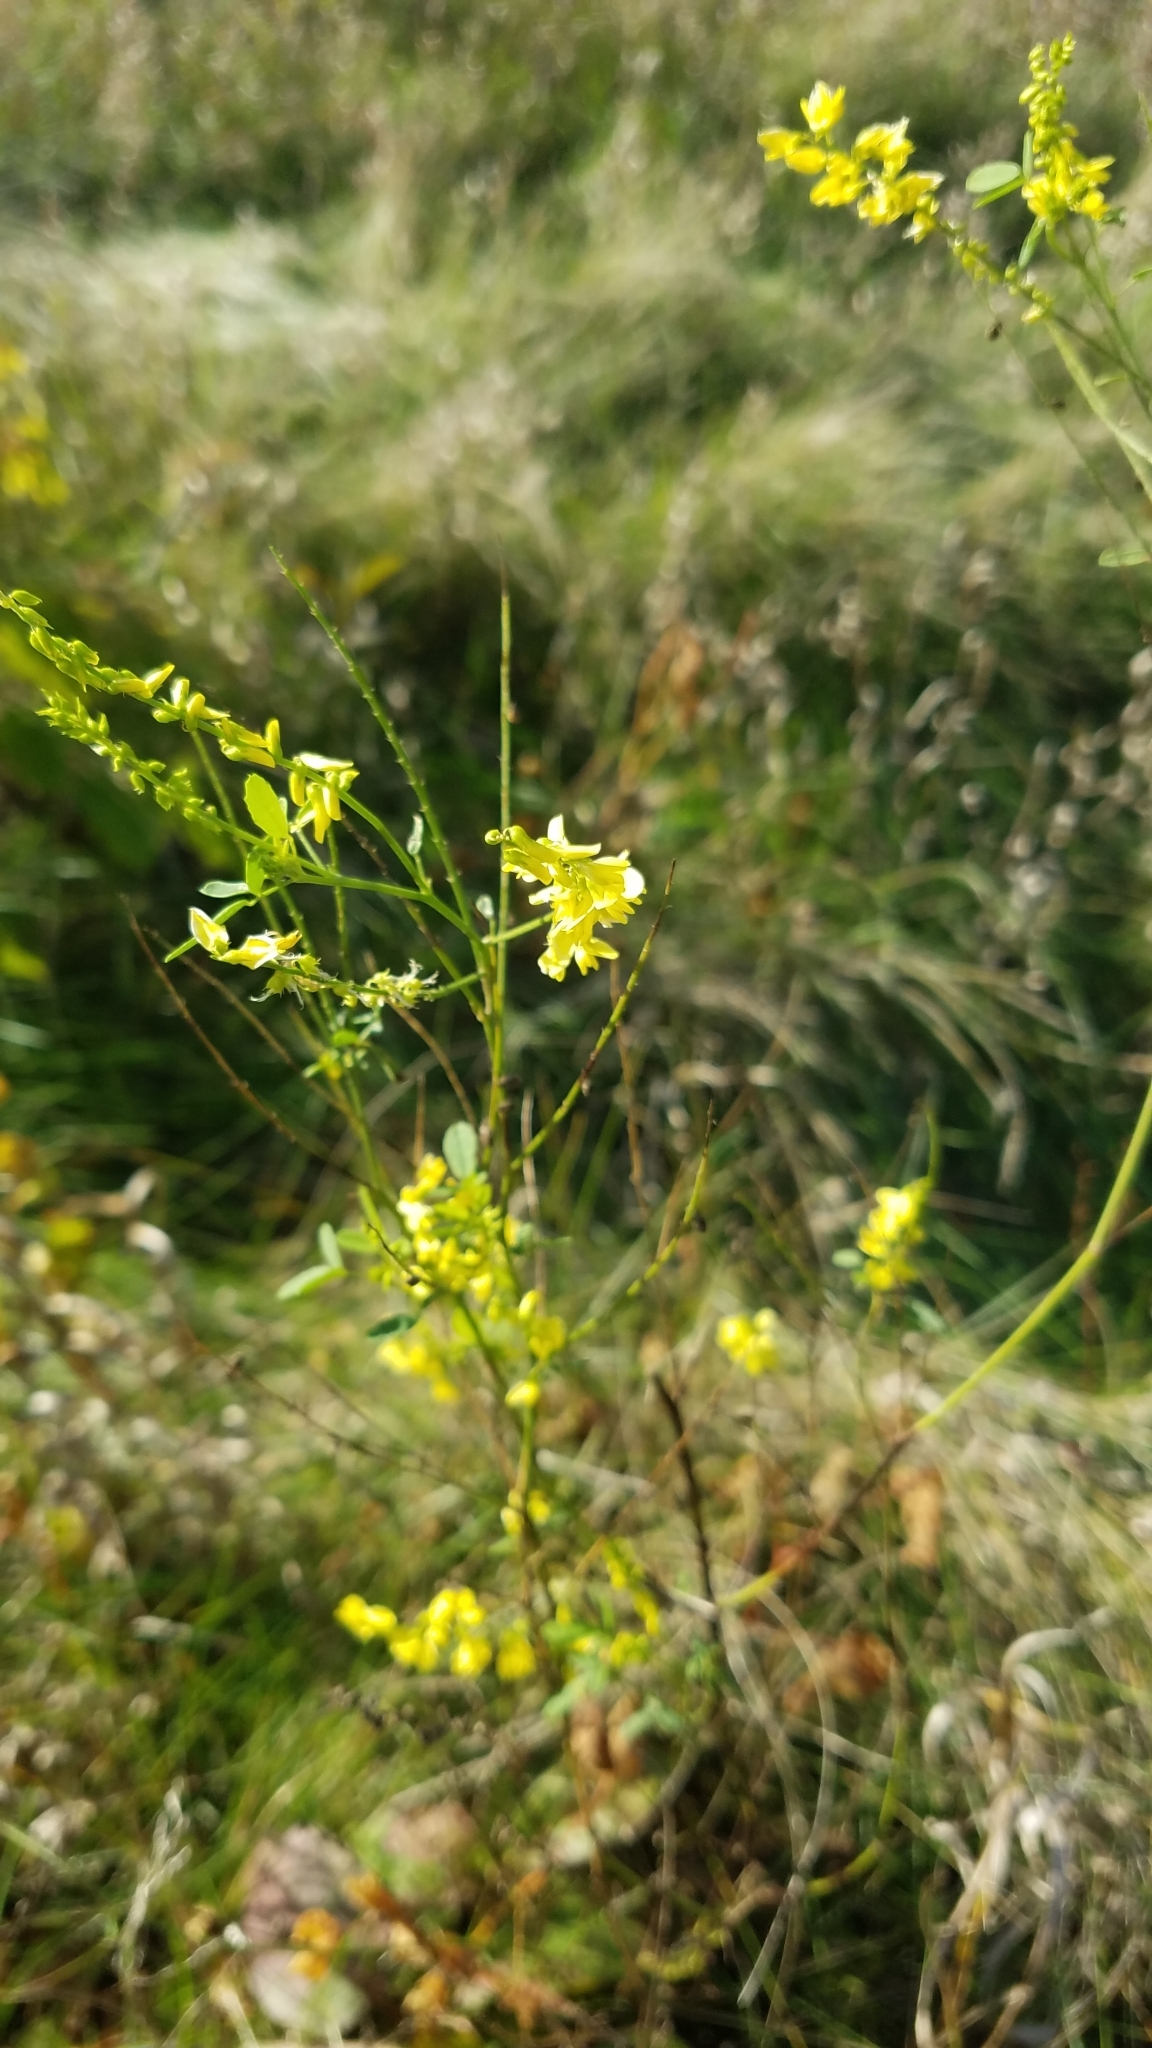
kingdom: Plantae
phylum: Tracheophyta
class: Magnoliopsida
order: Fabales
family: Fabaceae
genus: Melilotus
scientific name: Melilotus officinalis
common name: Sweetclover
